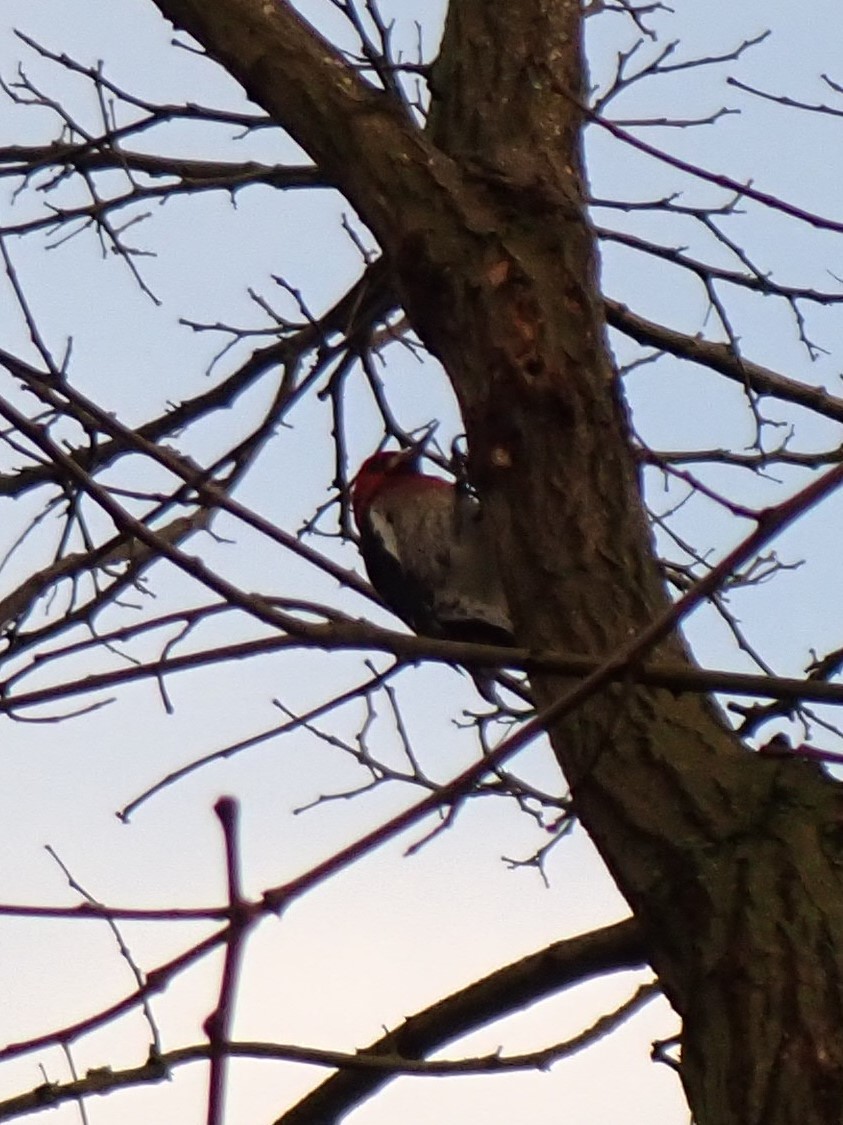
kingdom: Animalia
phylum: Chordata
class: Aves
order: Piciformes
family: Picidae
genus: Sphyrapicus
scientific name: Sphyrapicus ruber
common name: Red-breasted sapsucker
